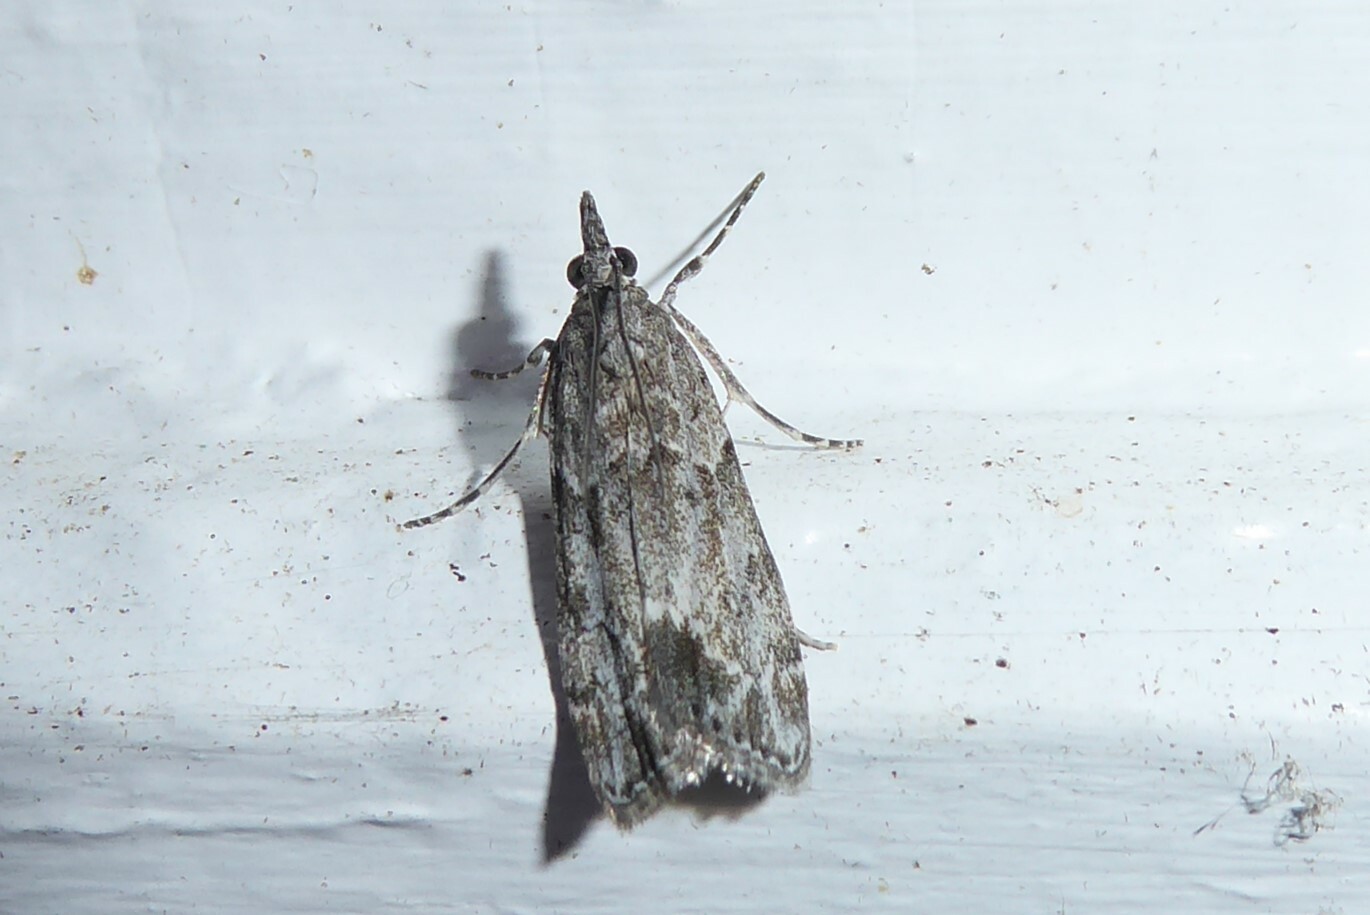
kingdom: Animalia
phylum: Arthropoda
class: Insecta
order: Lepidoptera
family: Crambidae
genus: Eudonia
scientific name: Eudonia rakaiensis
